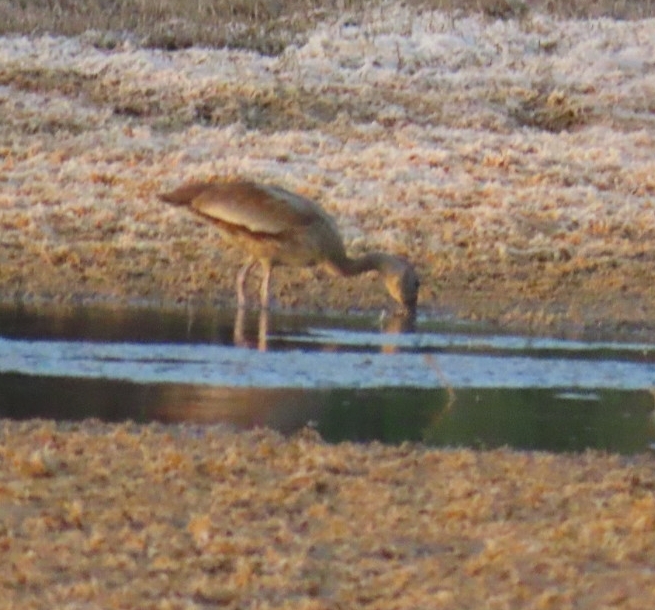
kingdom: Animalia
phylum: Chordata
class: Aves
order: Anseriformes
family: Anatidae
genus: Dendrocygna
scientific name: Dendrocygna autumnalis
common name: Black-bellied whistling duck
